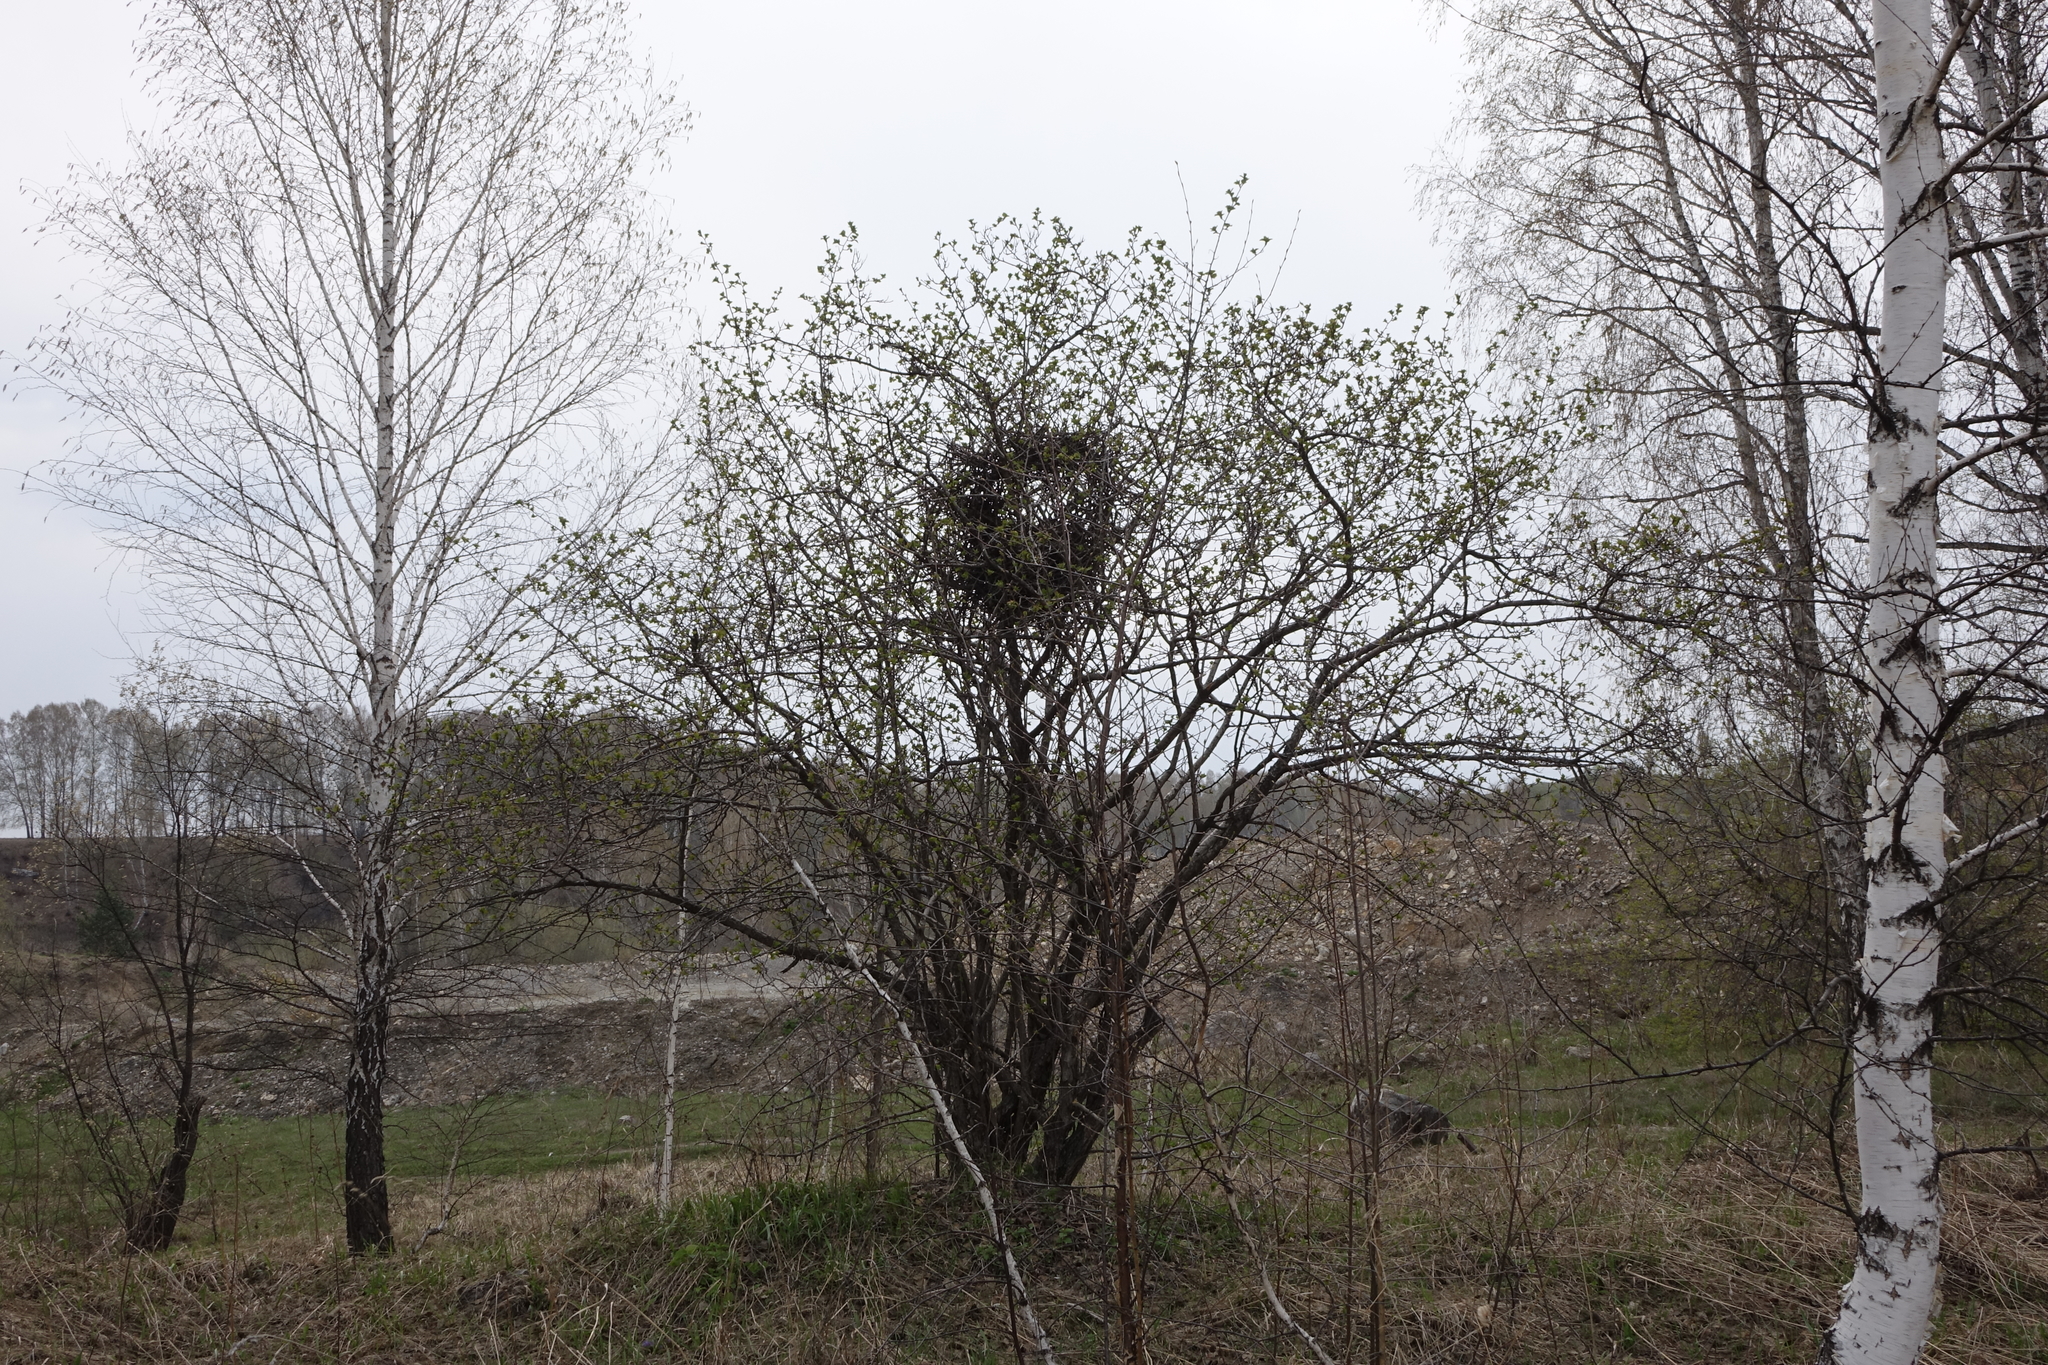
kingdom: Animalia
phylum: Chordata
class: Aves
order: Passeriformes
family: Corvidae
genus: Pica
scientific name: Pica pica
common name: Eurasian magpie
